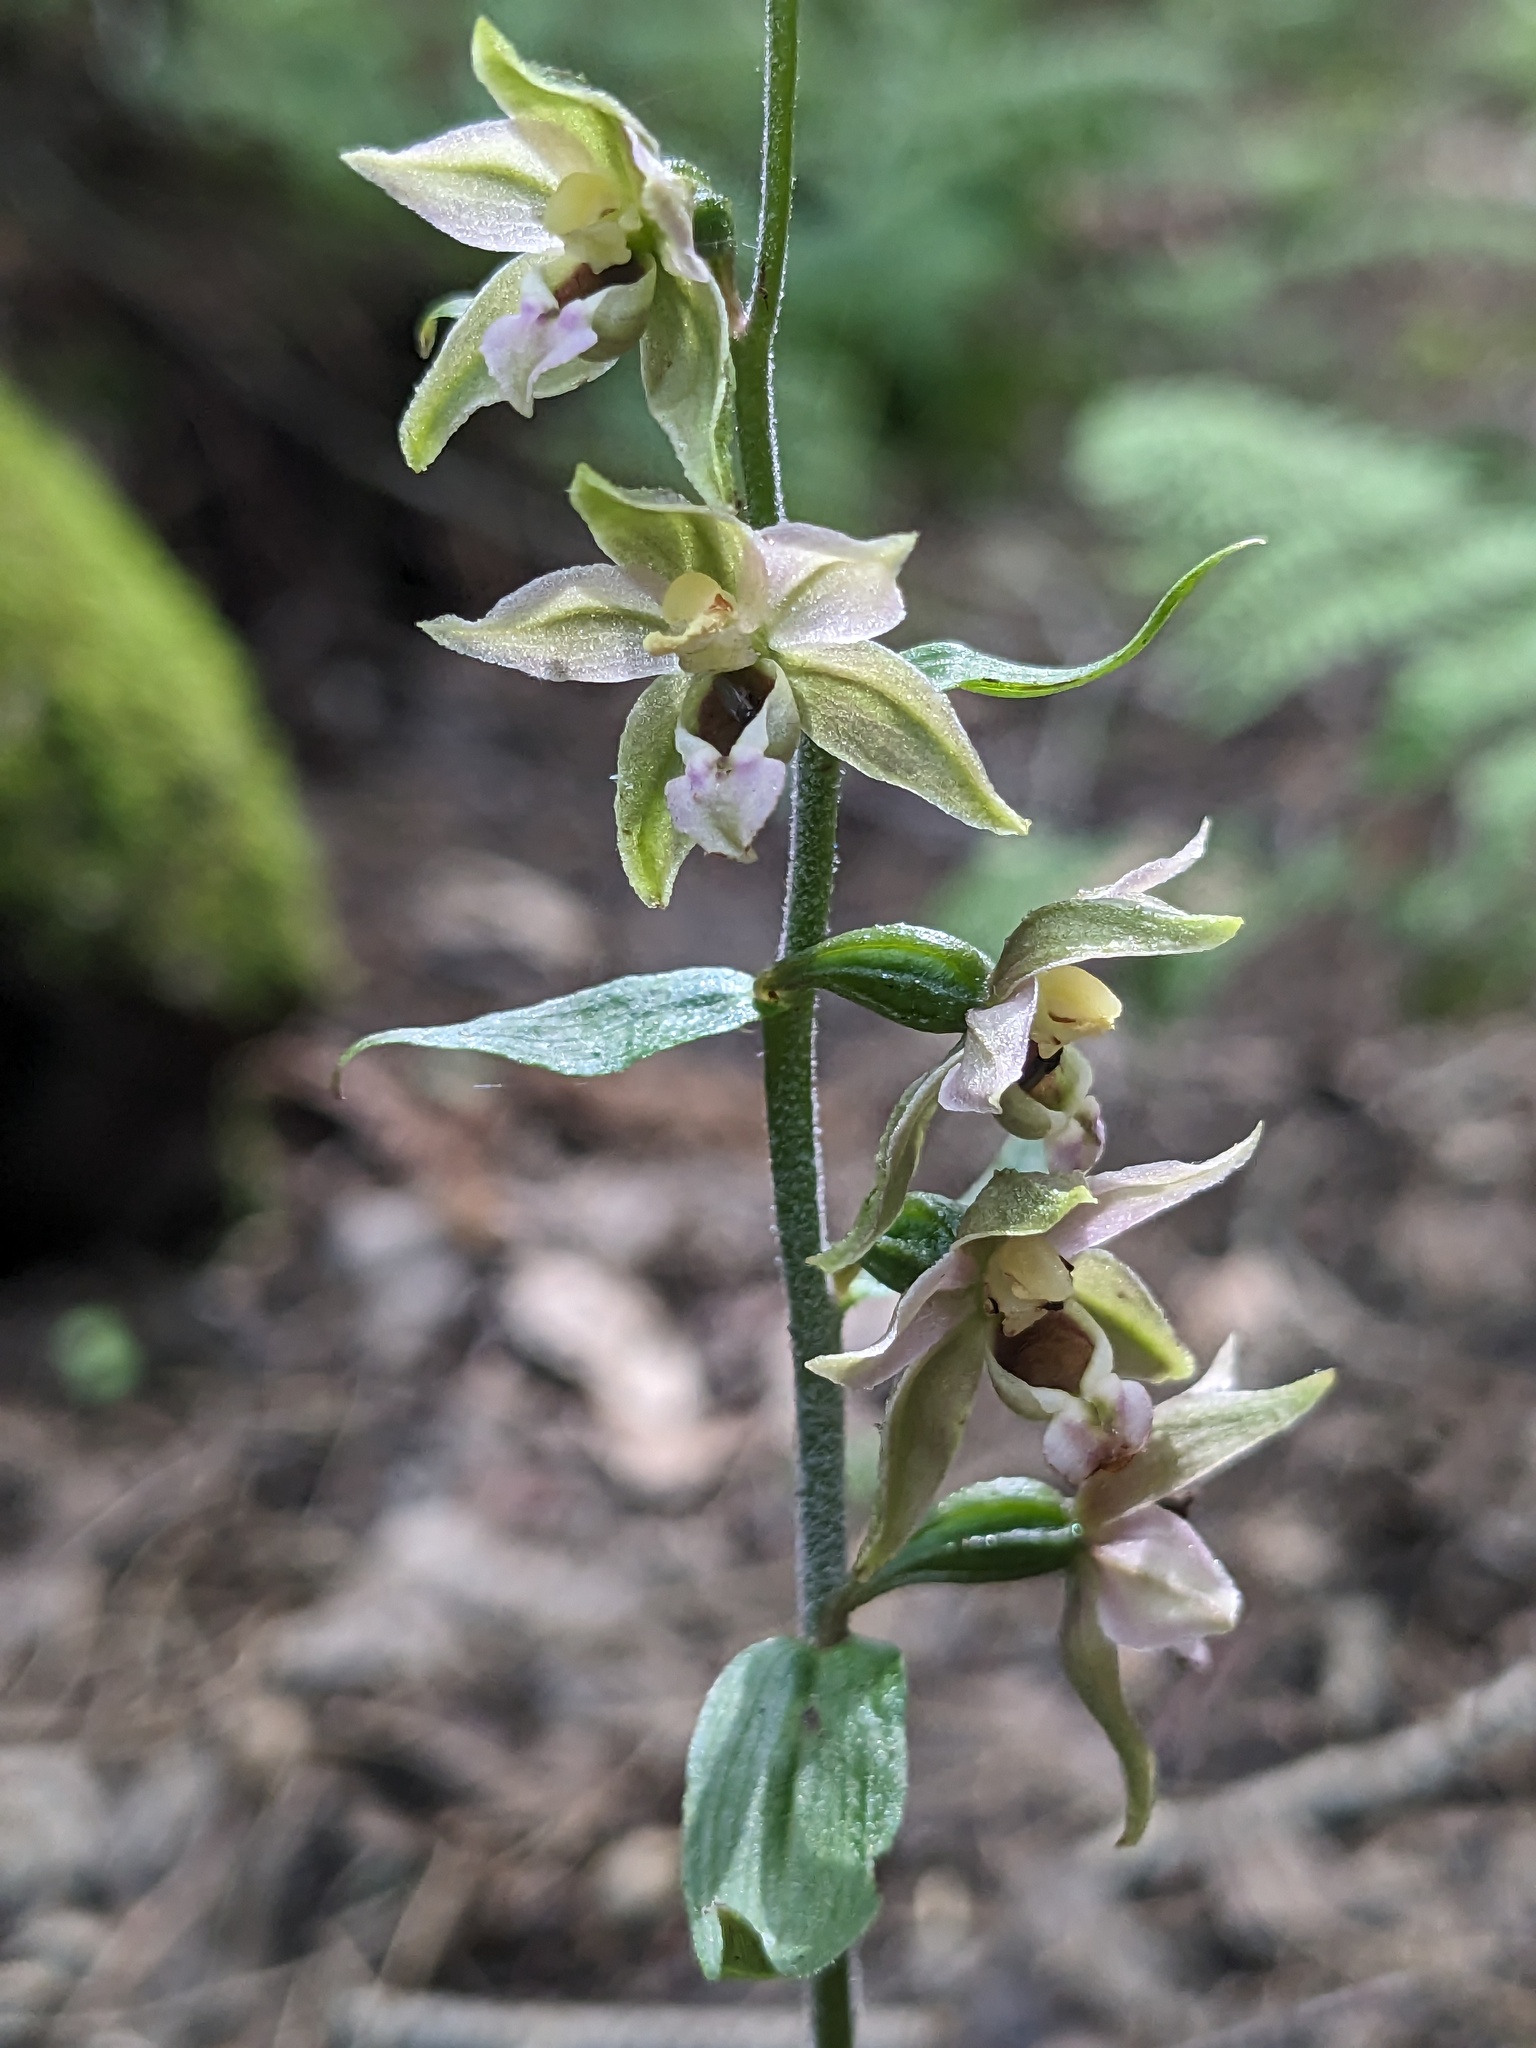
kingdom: Plantae
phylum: Tracheophyta
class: Liliopsida
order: Asparagales
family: Orchidaceae
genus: Epipactis
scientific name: Epipactis helleborine
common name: Broad-leaved helleborine
